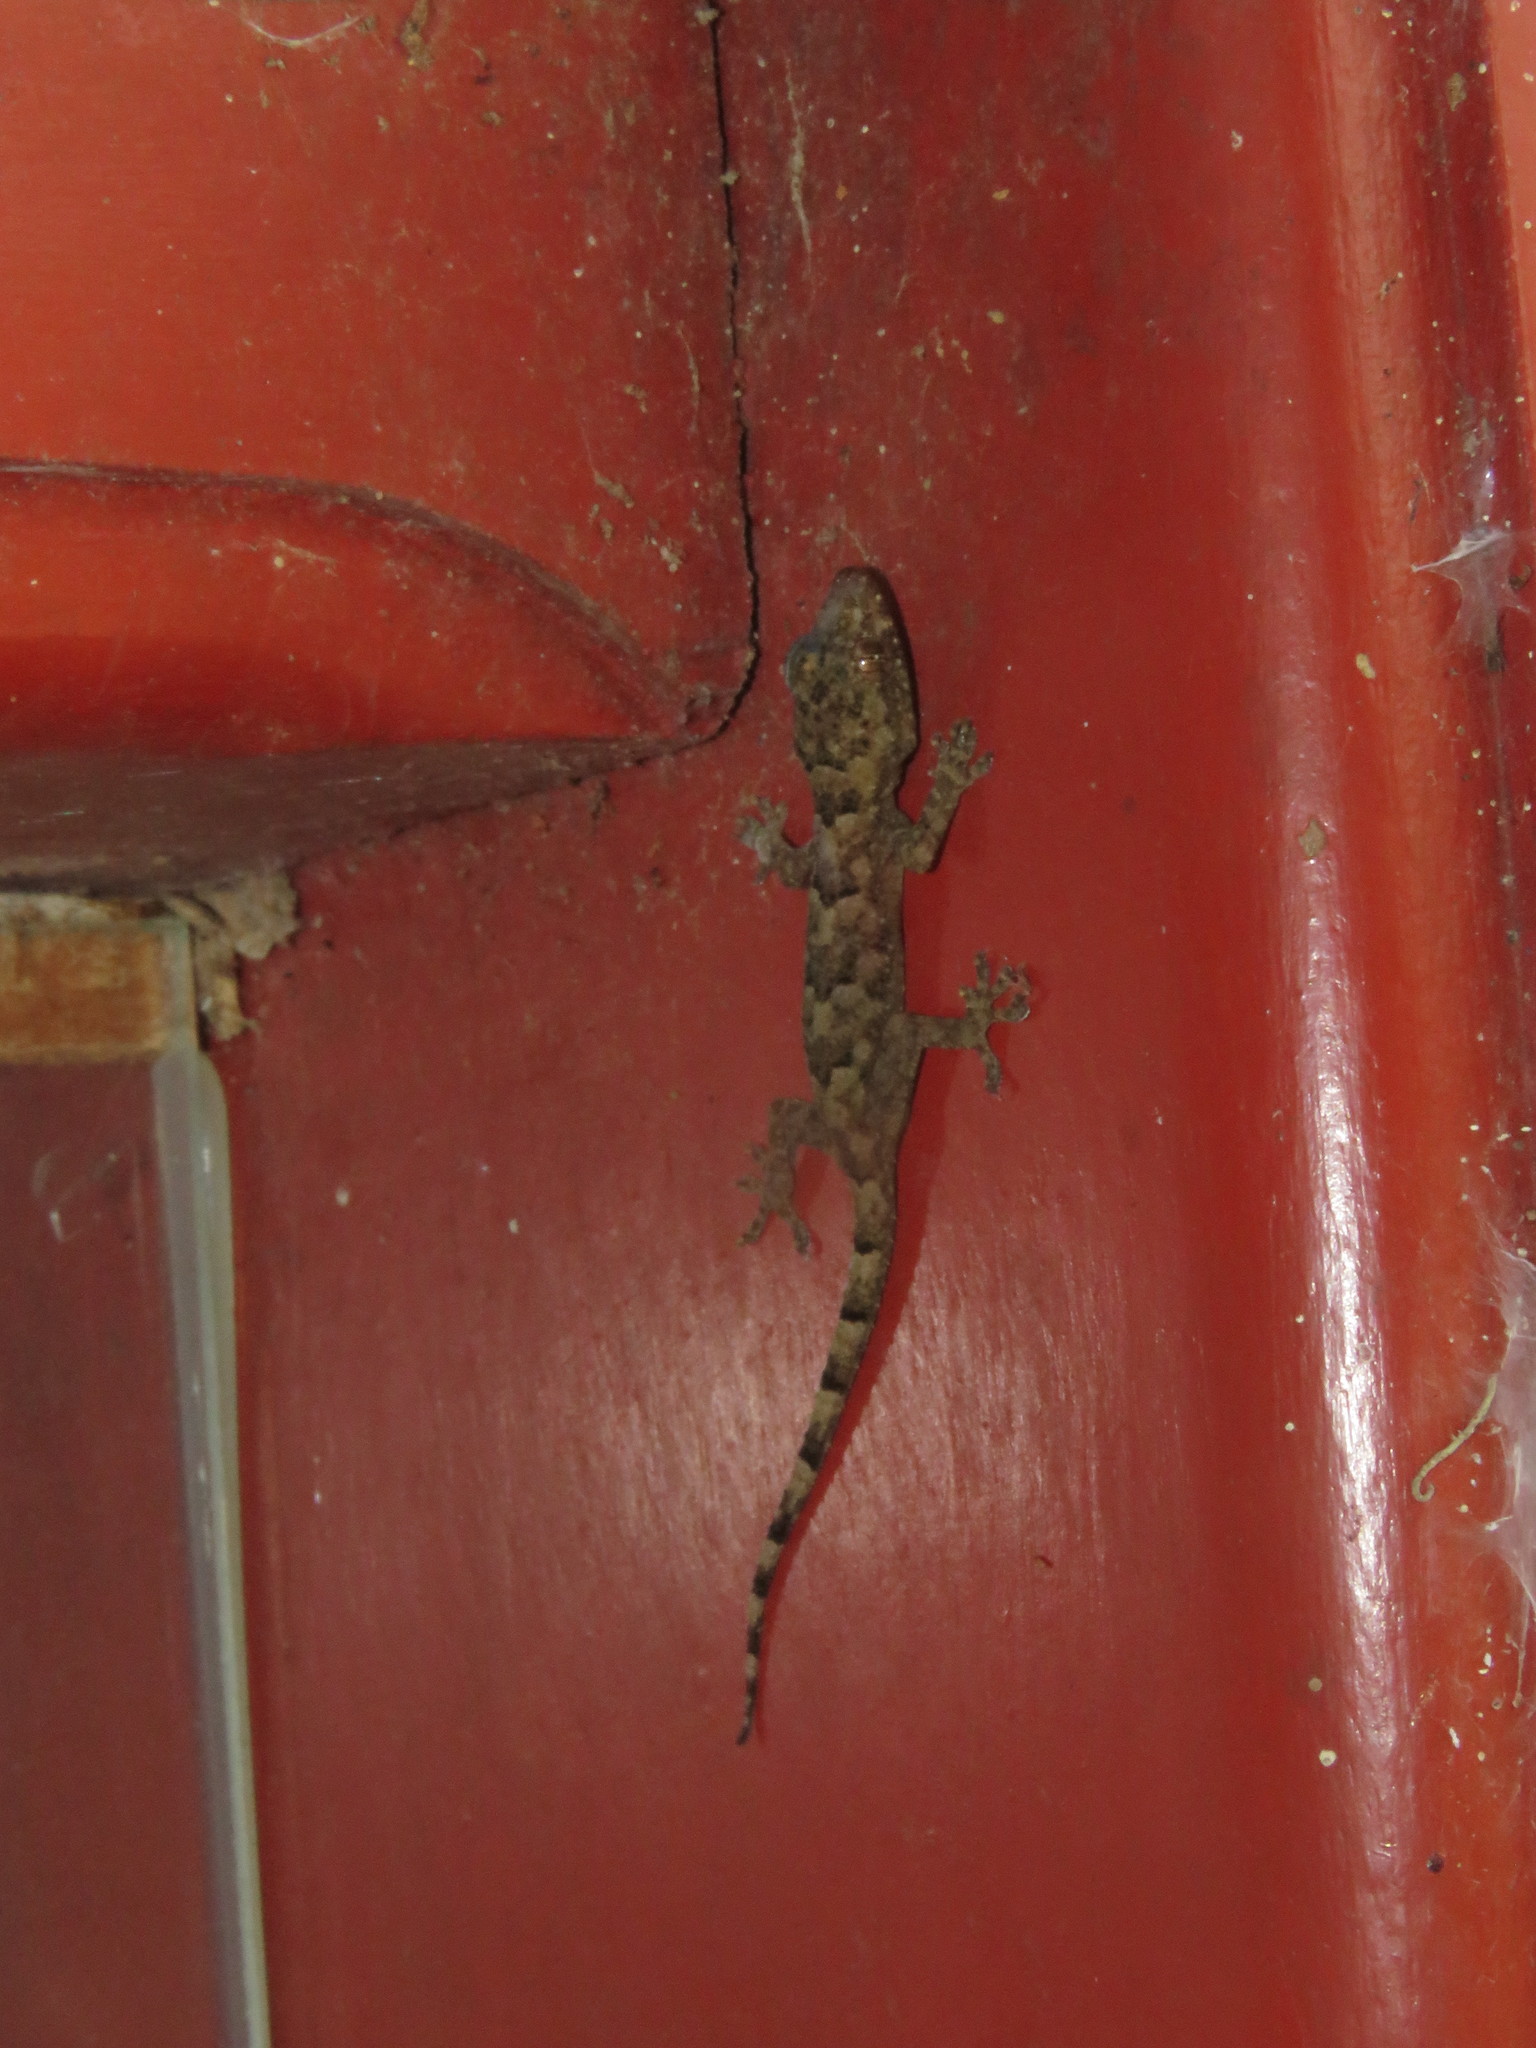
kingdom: Animalia
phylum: Chordata
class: Squamata
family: Gekkonidae
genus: Hemidactylus
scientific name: Hemidactylus mabouia
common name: House gecko
